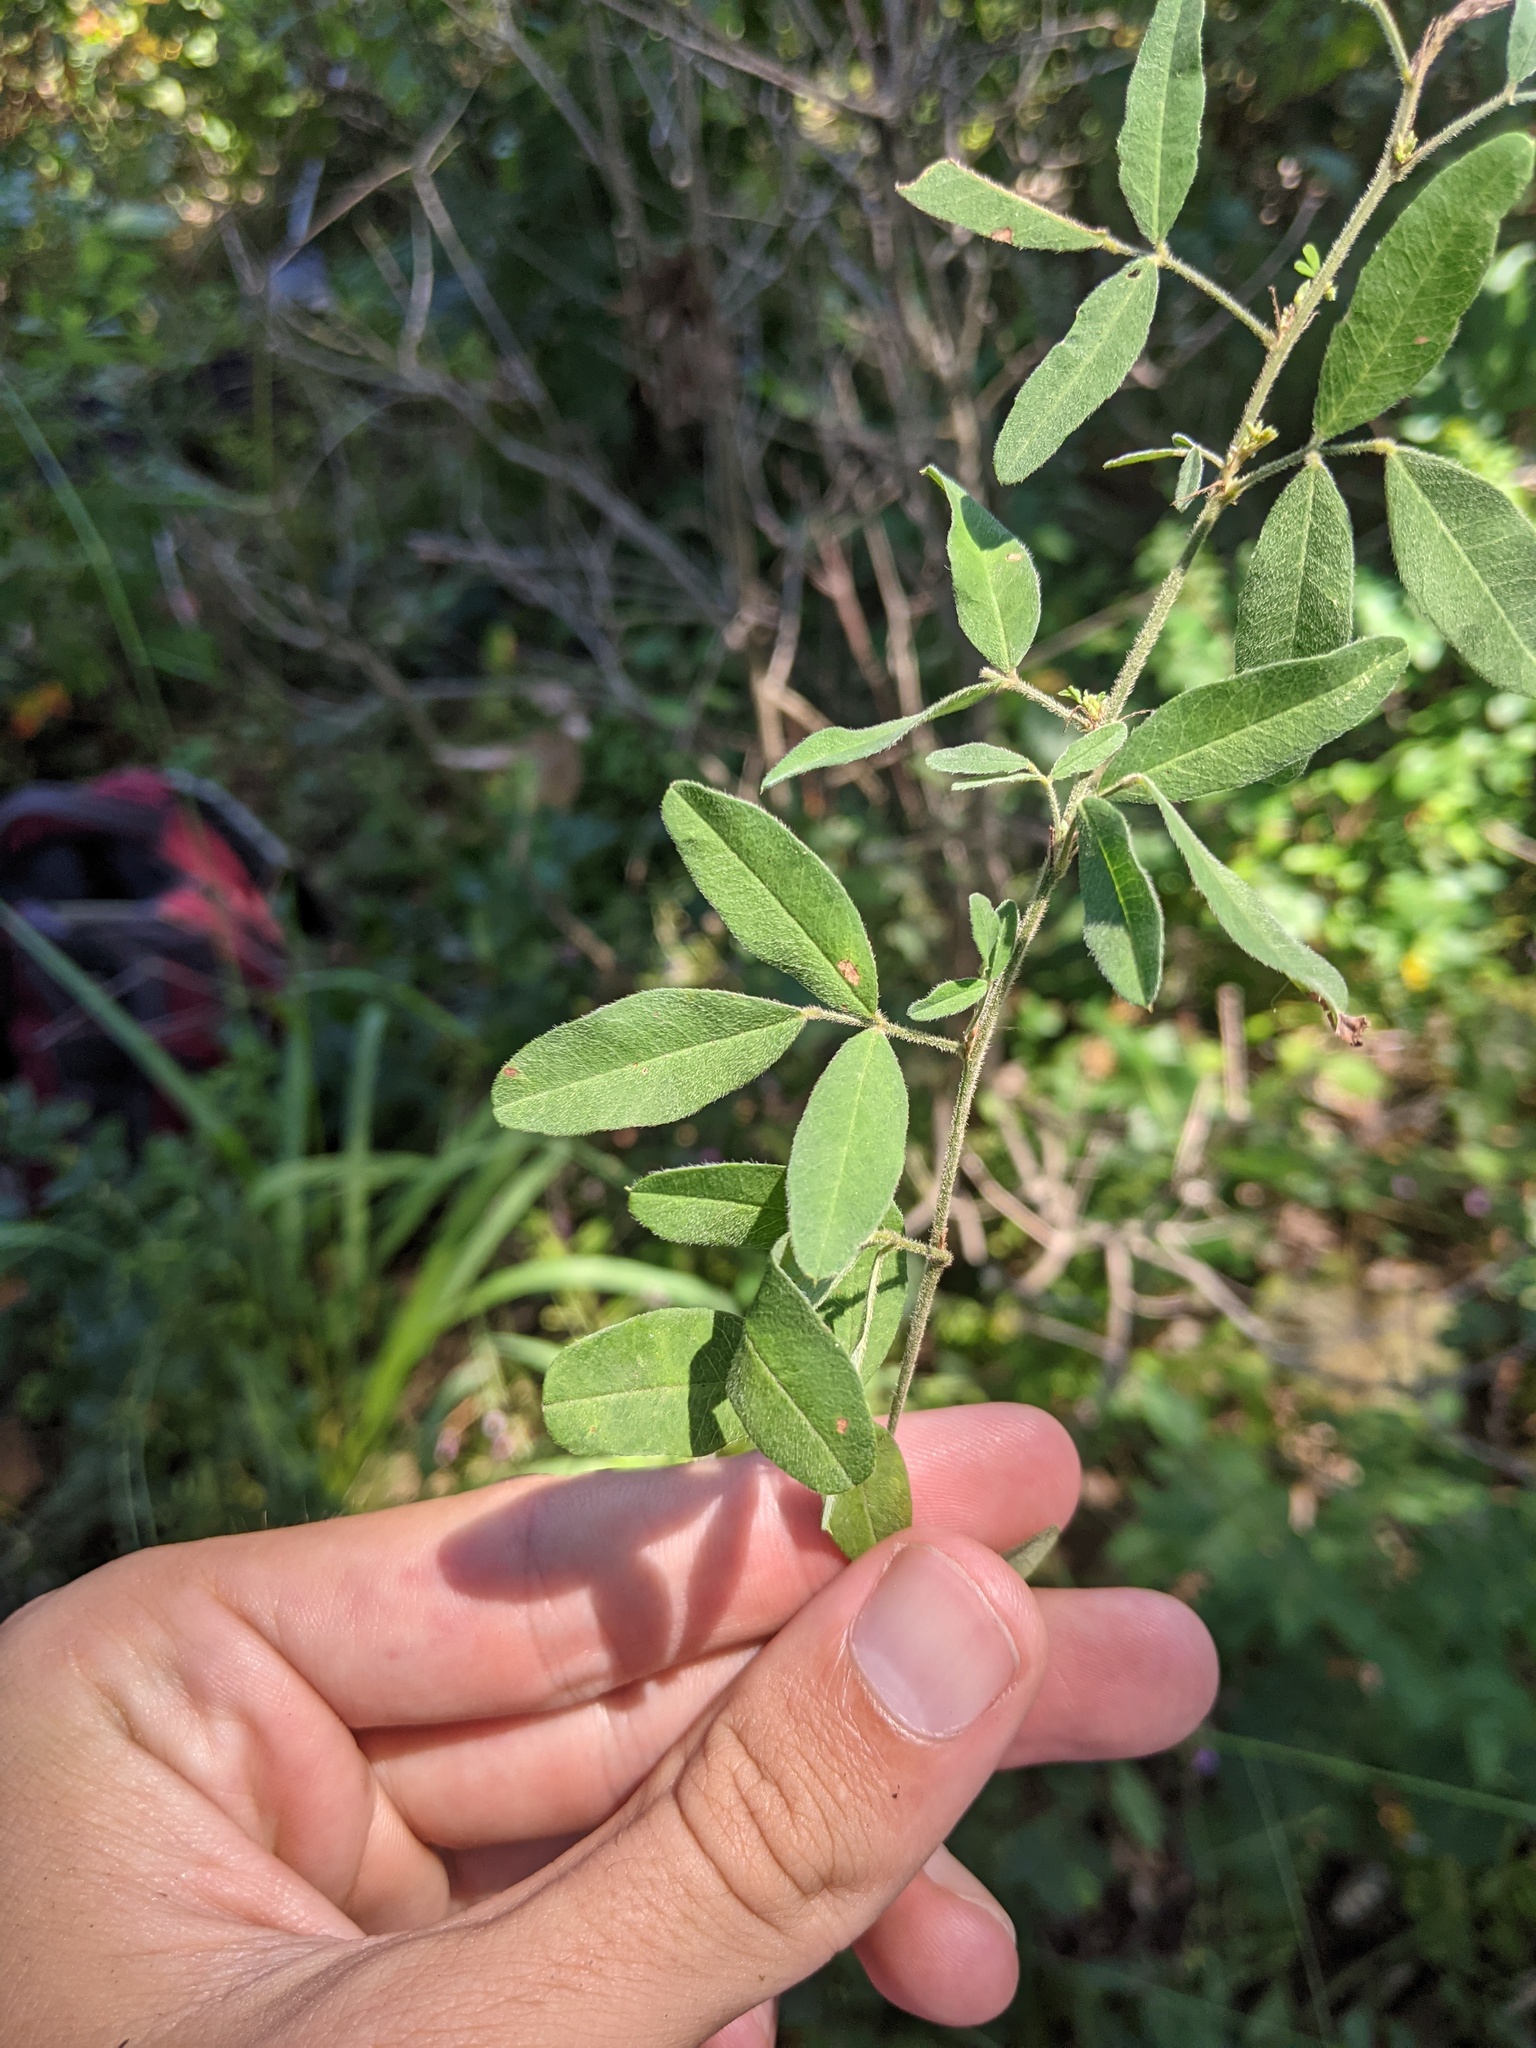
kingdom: Plantae
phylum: Tracheophyta
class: Magnoliopsida
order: Fabales
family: Fabaceae
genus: Lespedeza
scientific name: Lespedeza brittonii
